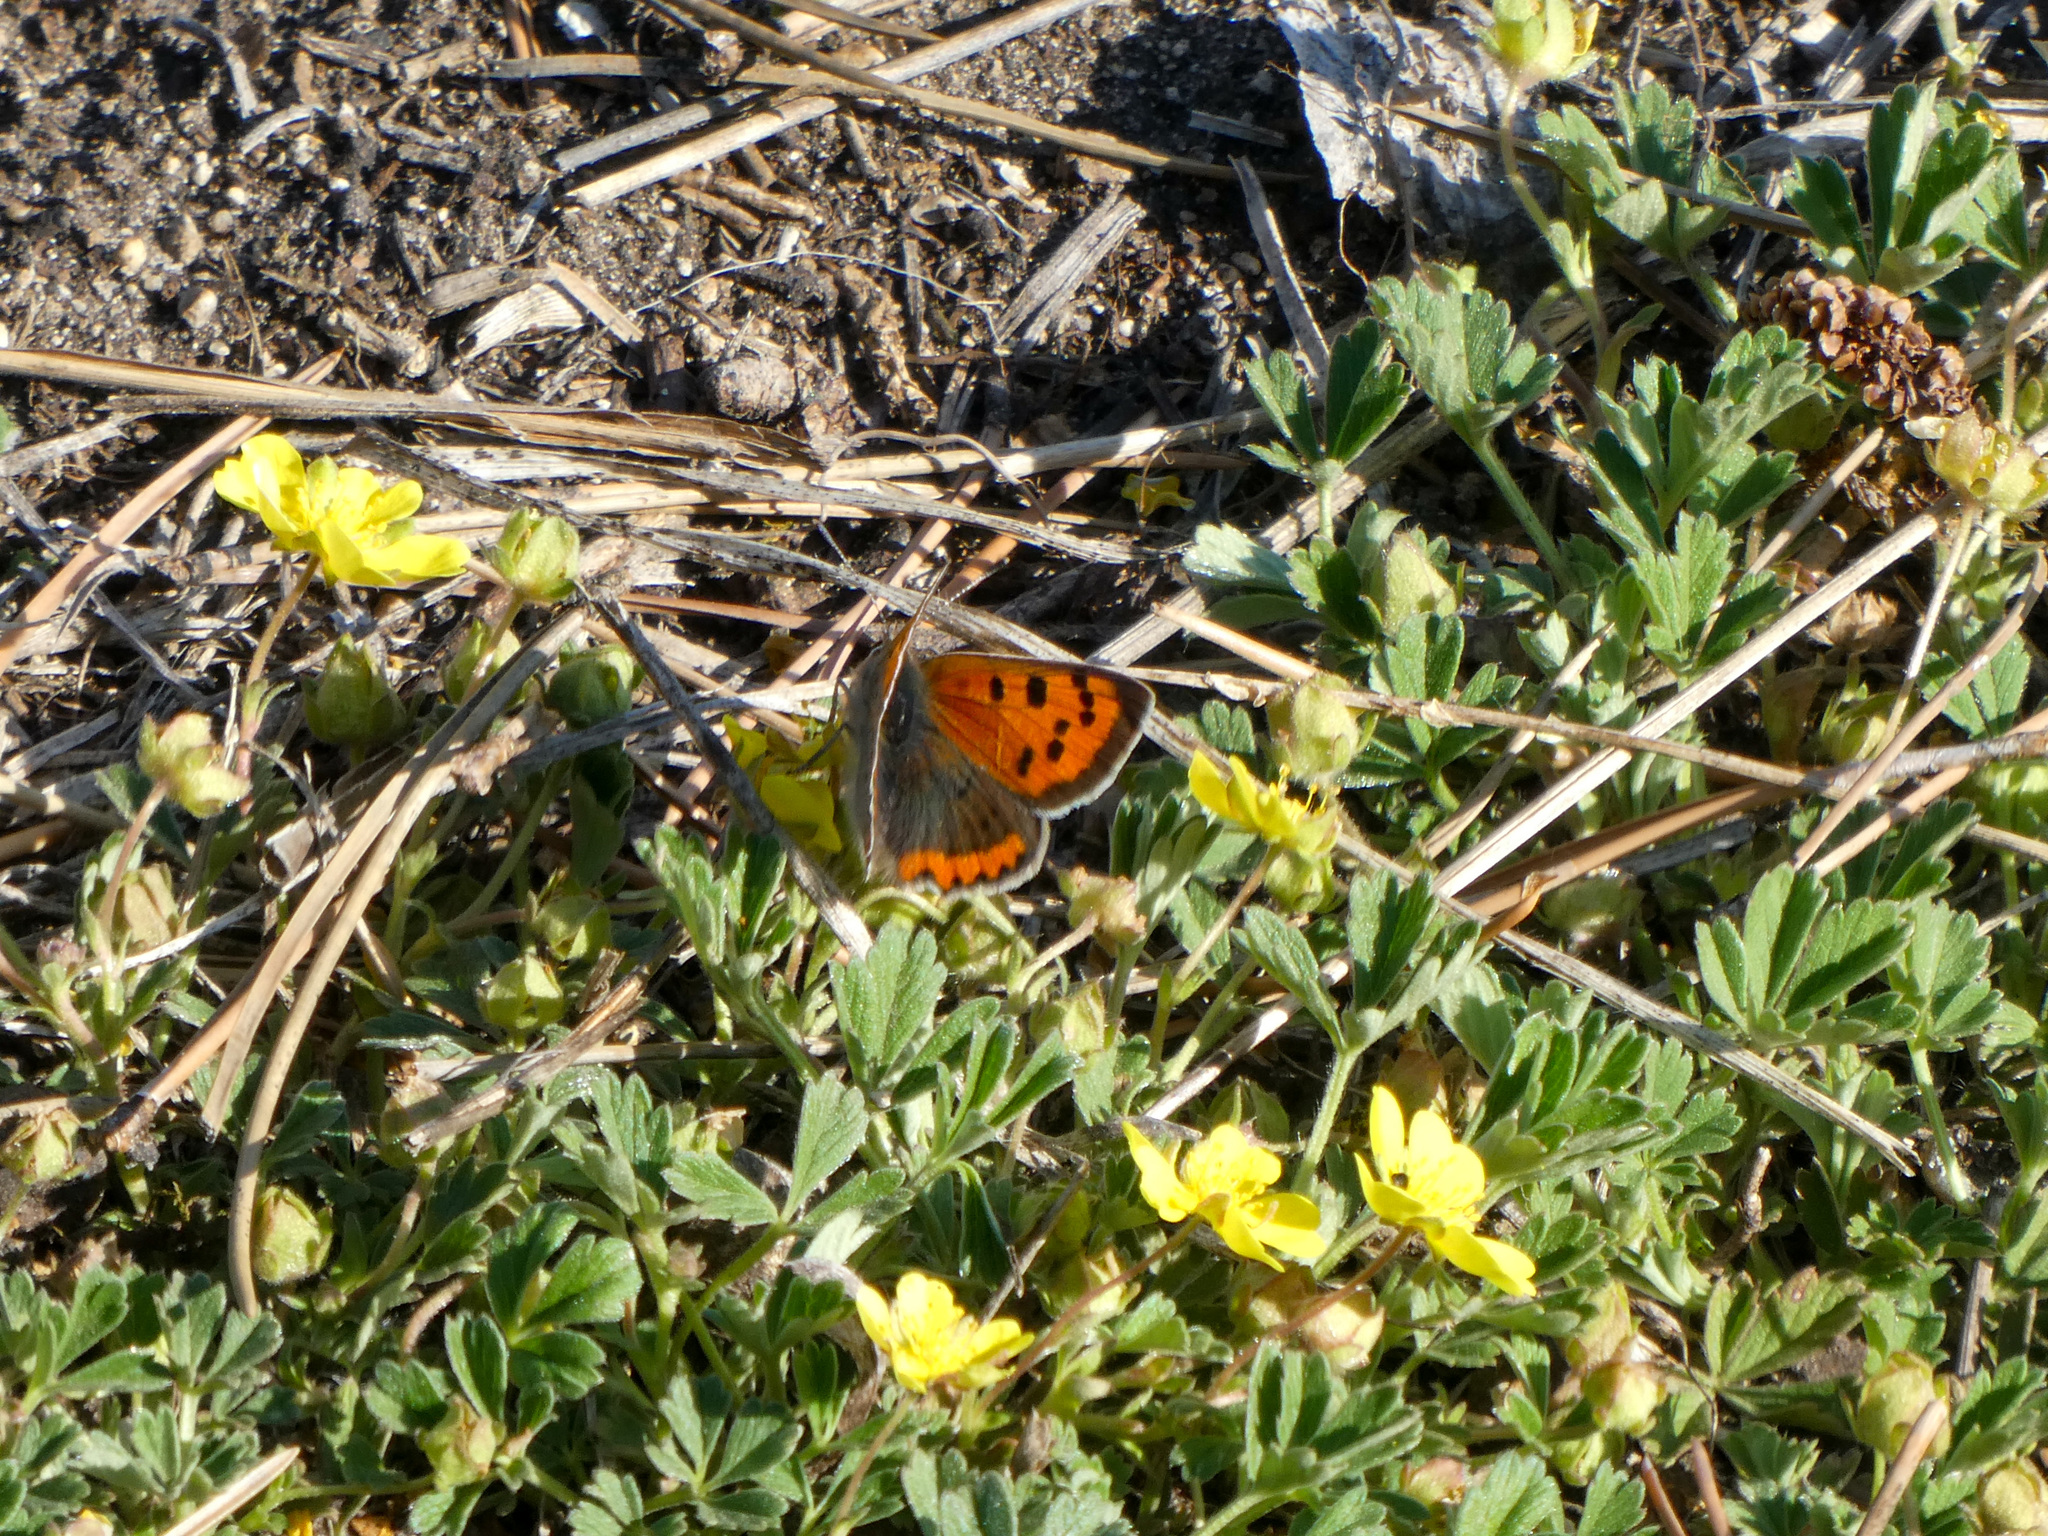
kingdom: Animalia
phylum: Arthropoda
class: Insecta
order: Lepidoptera
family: Lycaenidae
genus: Lycaena
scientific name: Lycaena phlaeas
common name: Small copper
